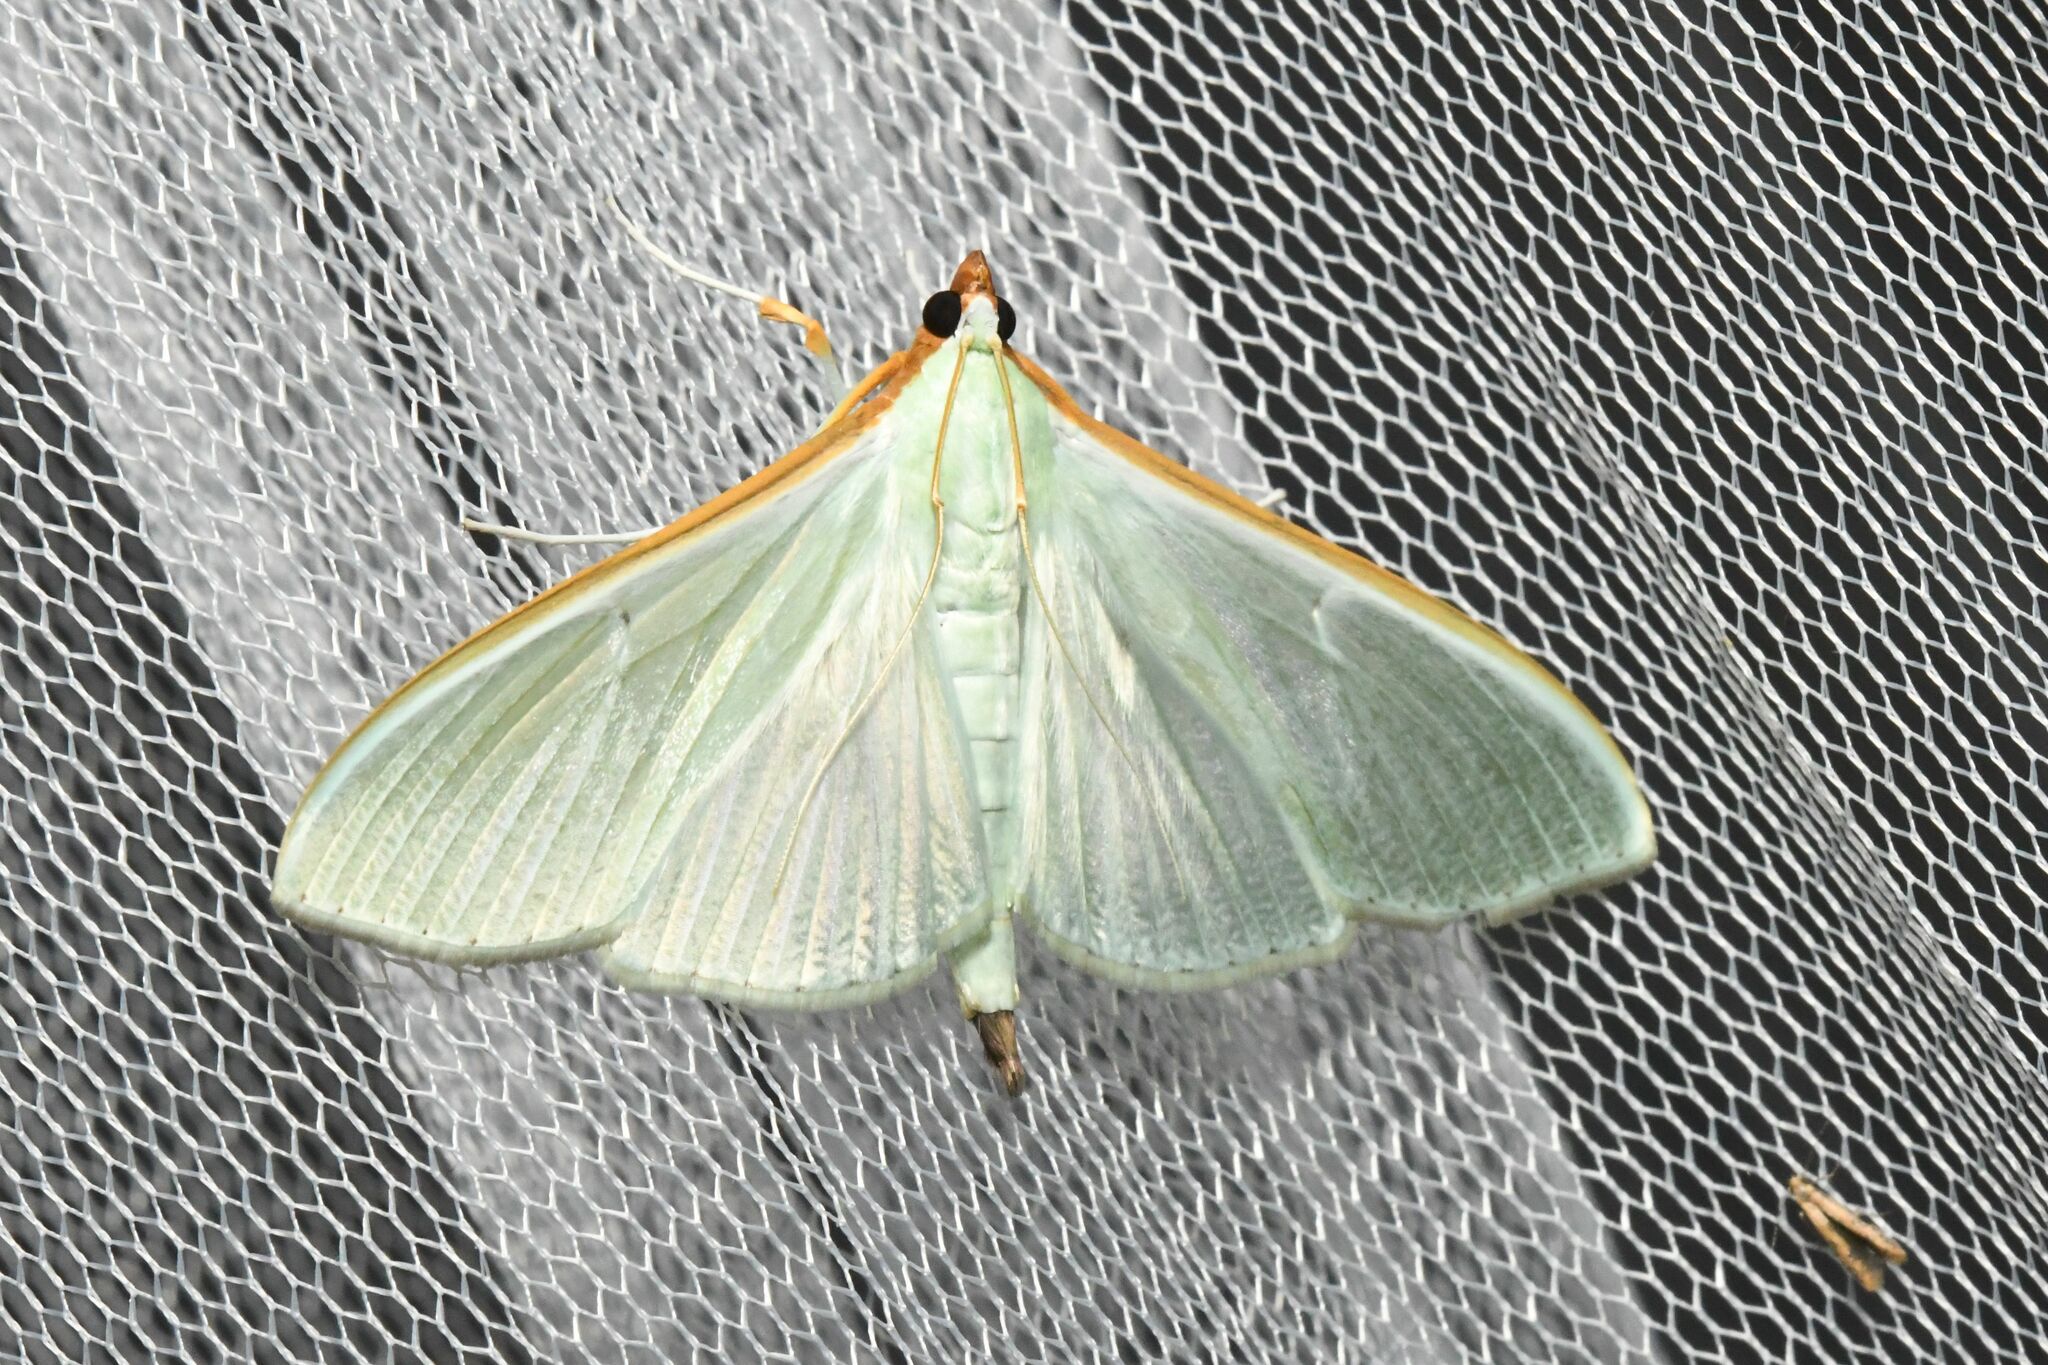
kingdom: Animalia
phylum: Arthropoda
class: Insecta
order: Lepidoptera
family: Crambidae
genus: Stemorrhages
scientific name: Stemorrhages sericea
